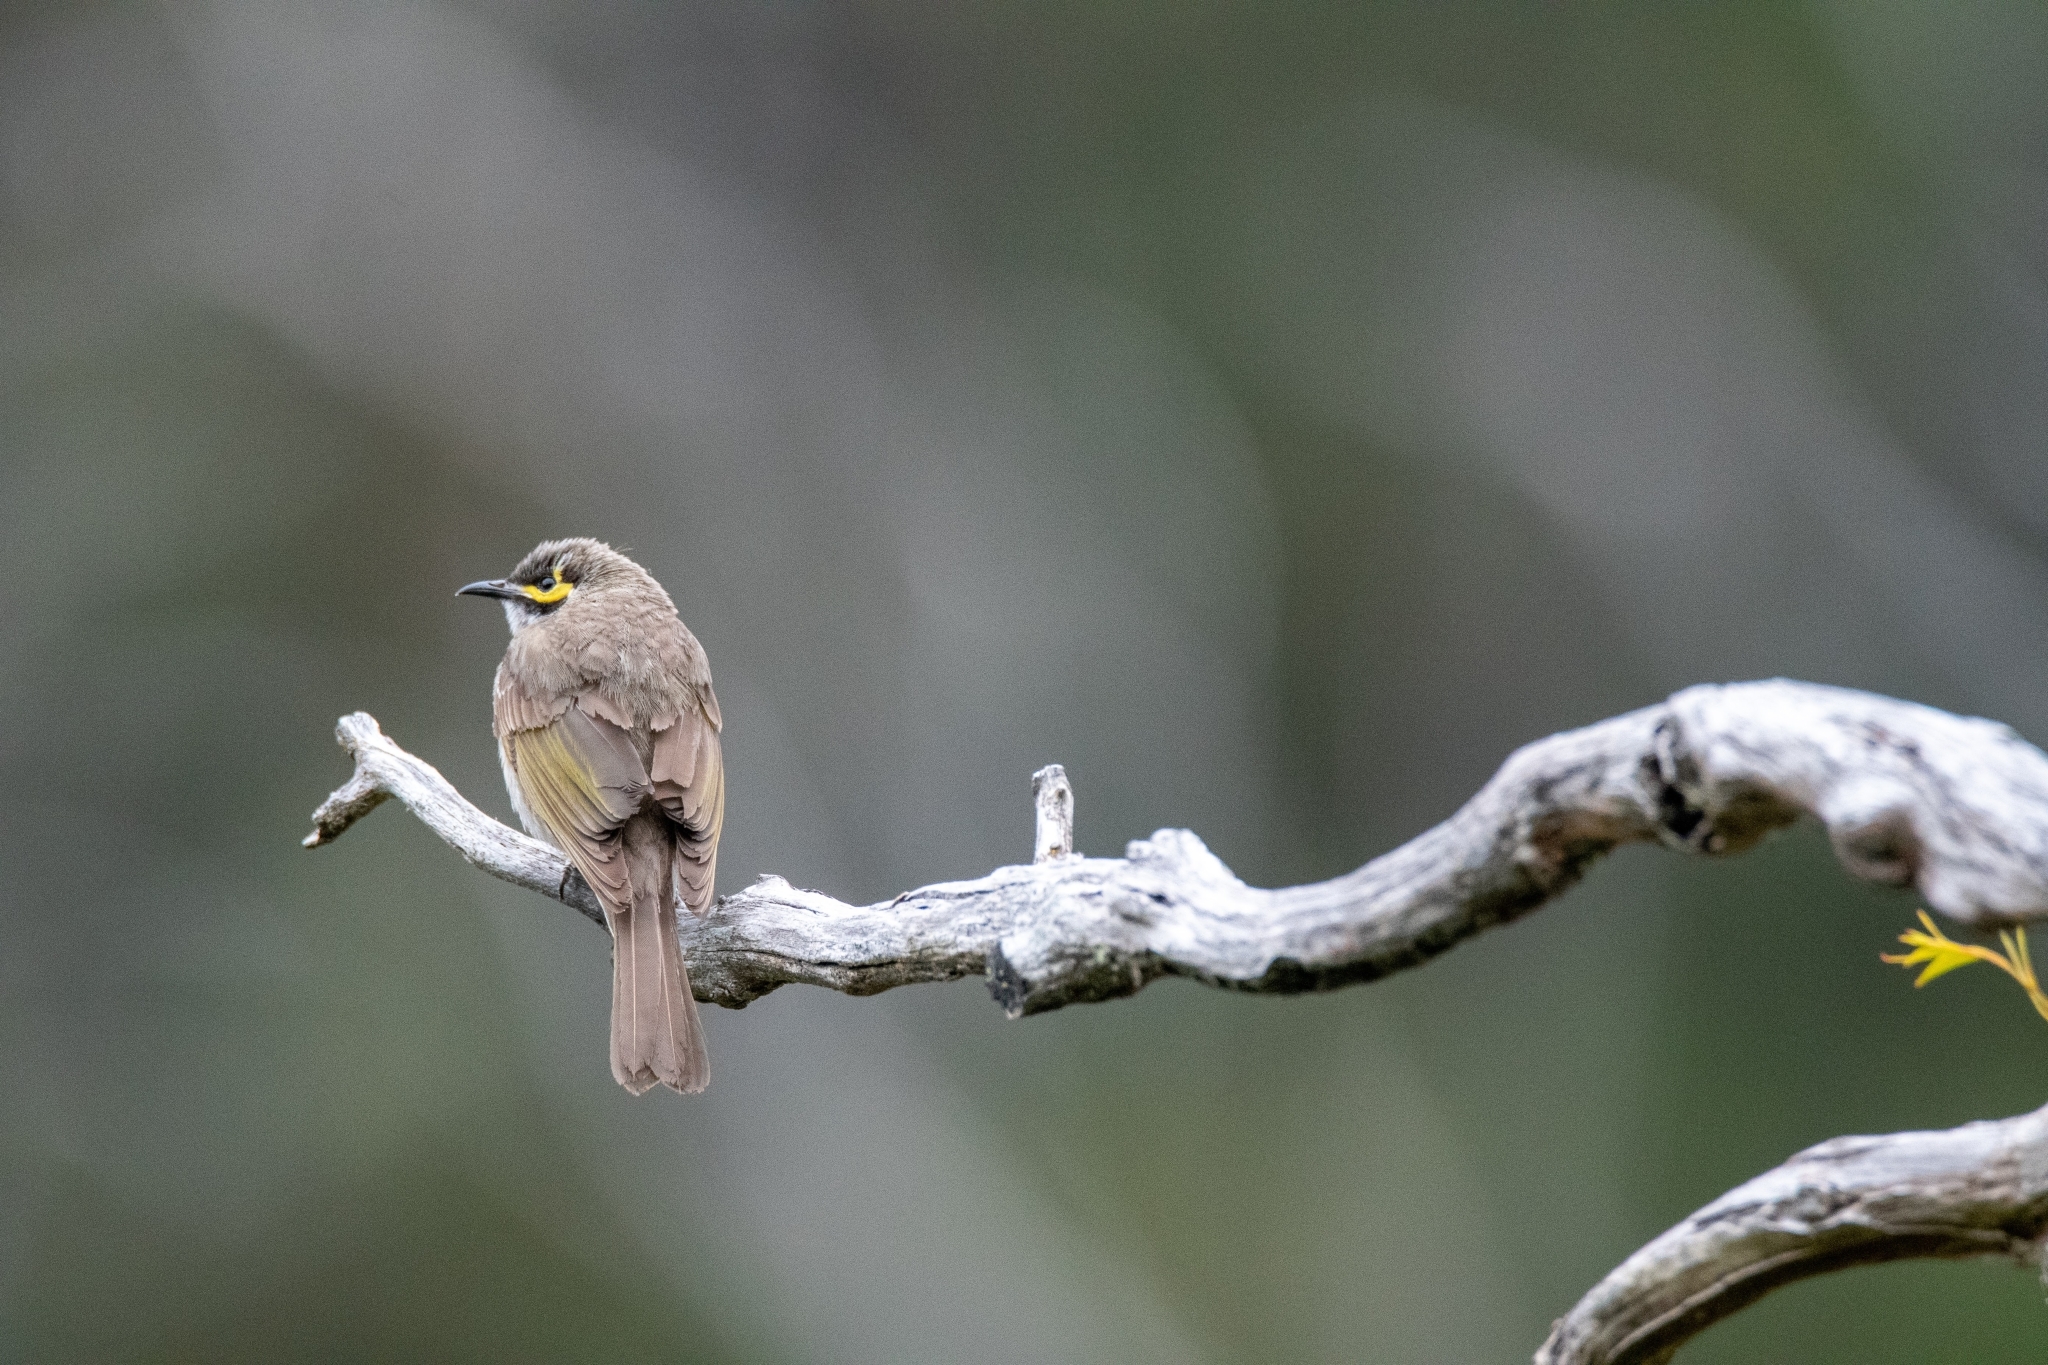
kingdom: Animalia
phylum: Chordata
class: Aves
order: Passeriformes
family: Meliphagidae
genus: Caligavis
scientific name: Caligavis chrysops
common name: Yellow-faced honeyeater
